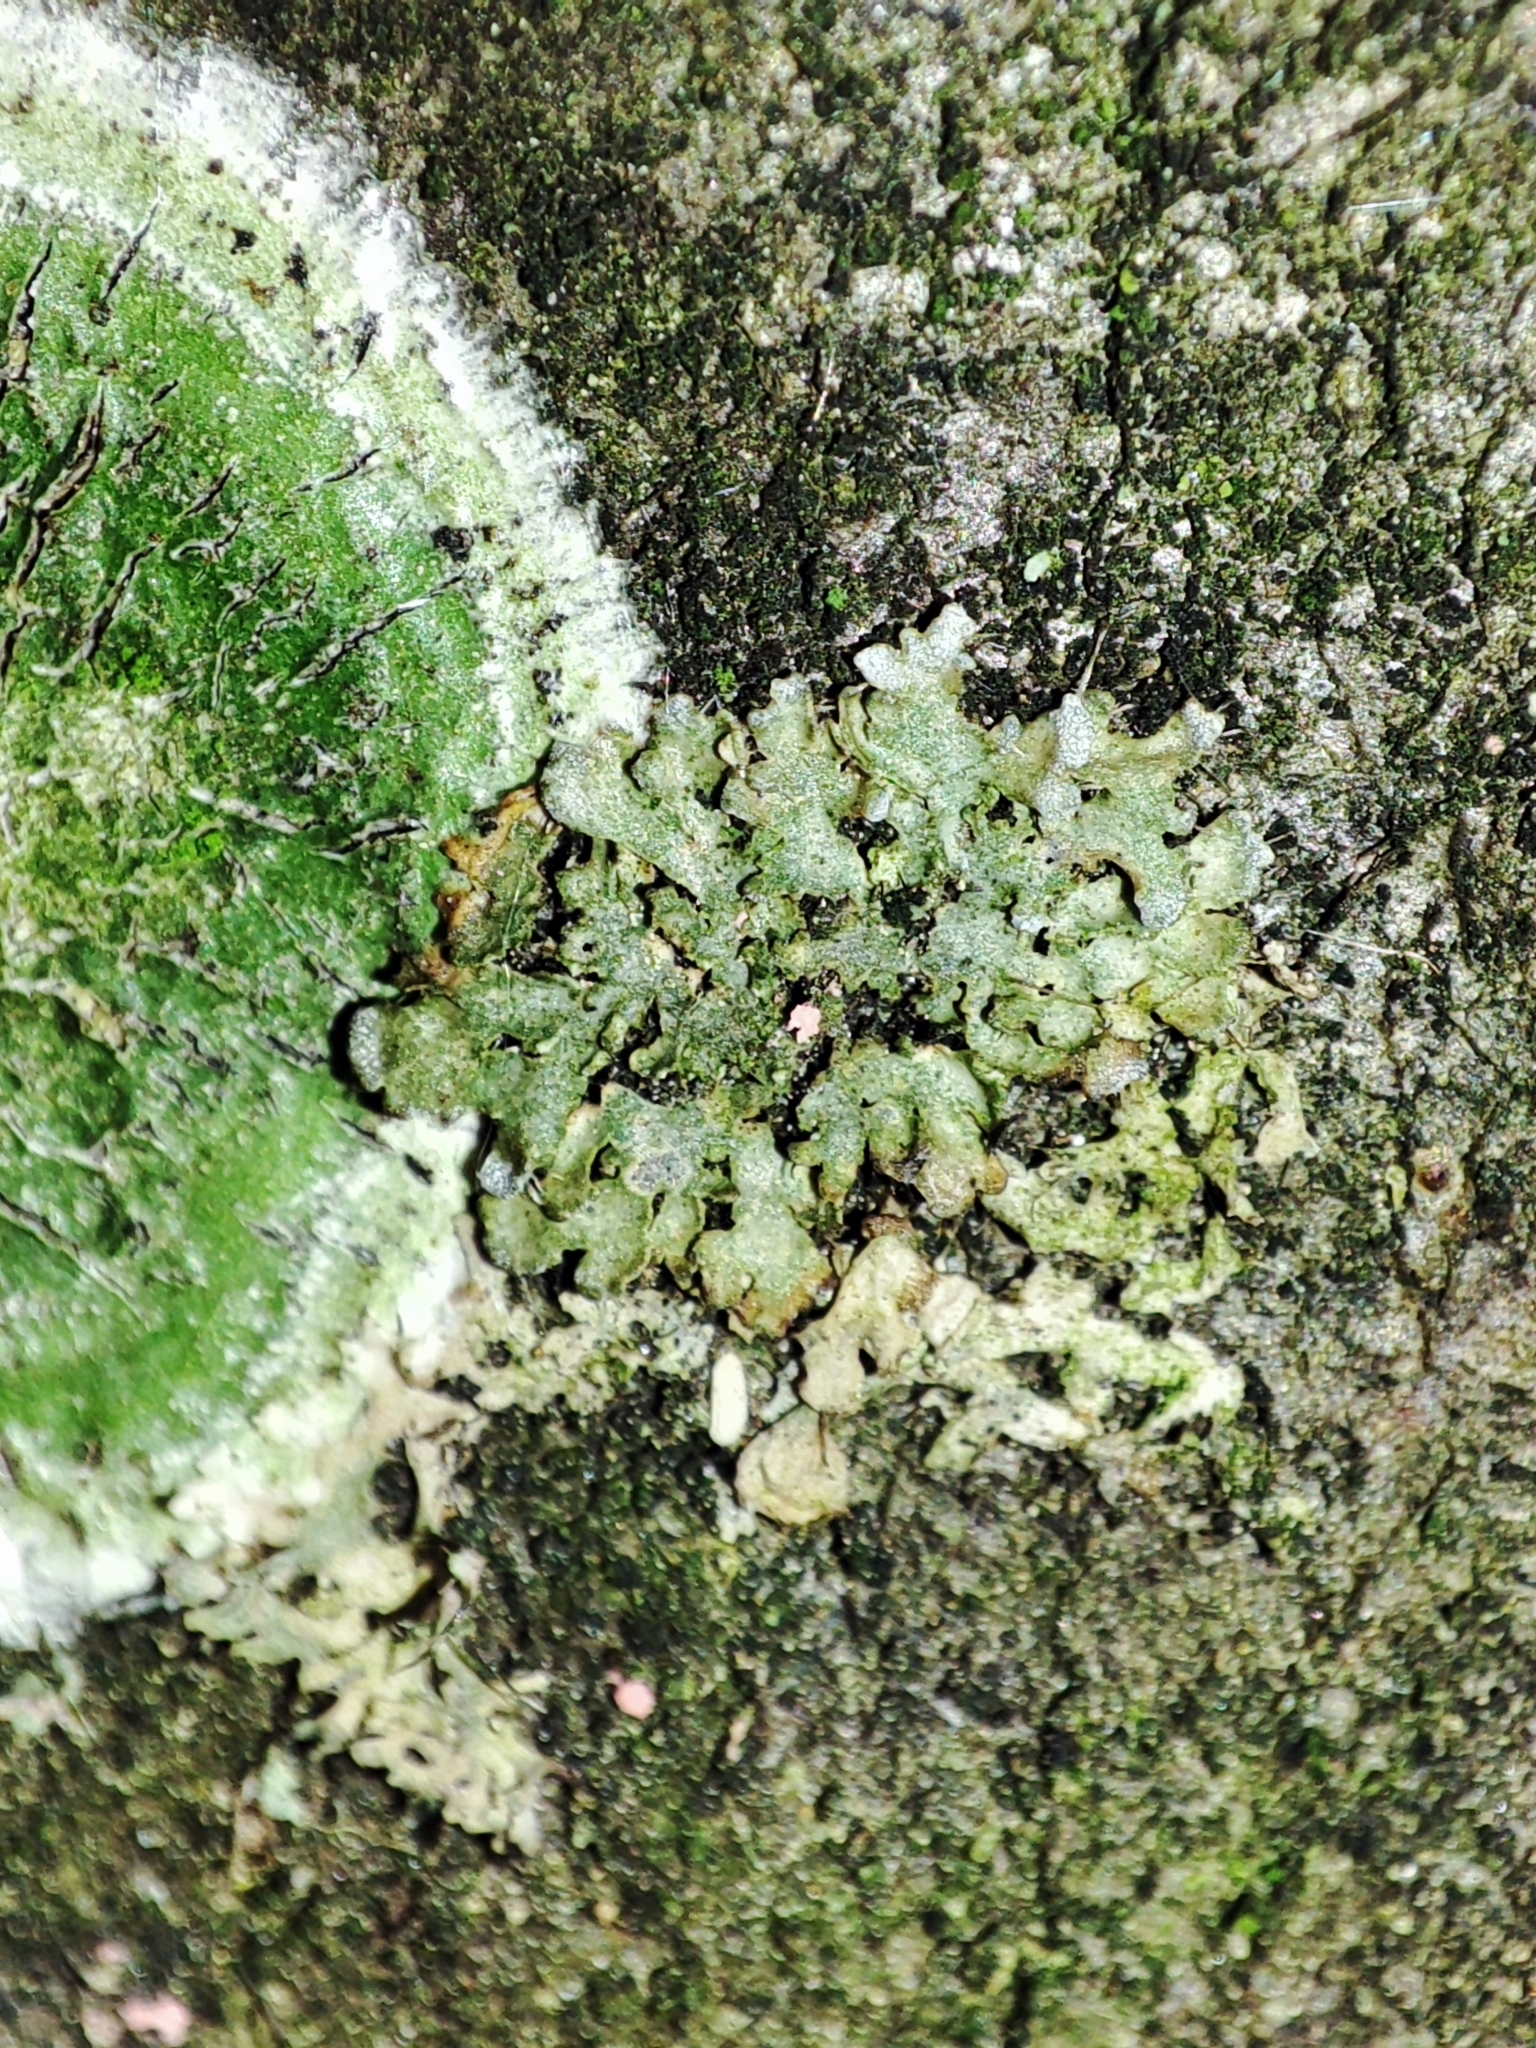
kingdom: Fungi
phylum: Ascomycota
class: Lecanoromycetes
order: Lecanorales
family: Parmeliaceae
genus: Melanelixia
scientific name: Melanelixia glabratula
